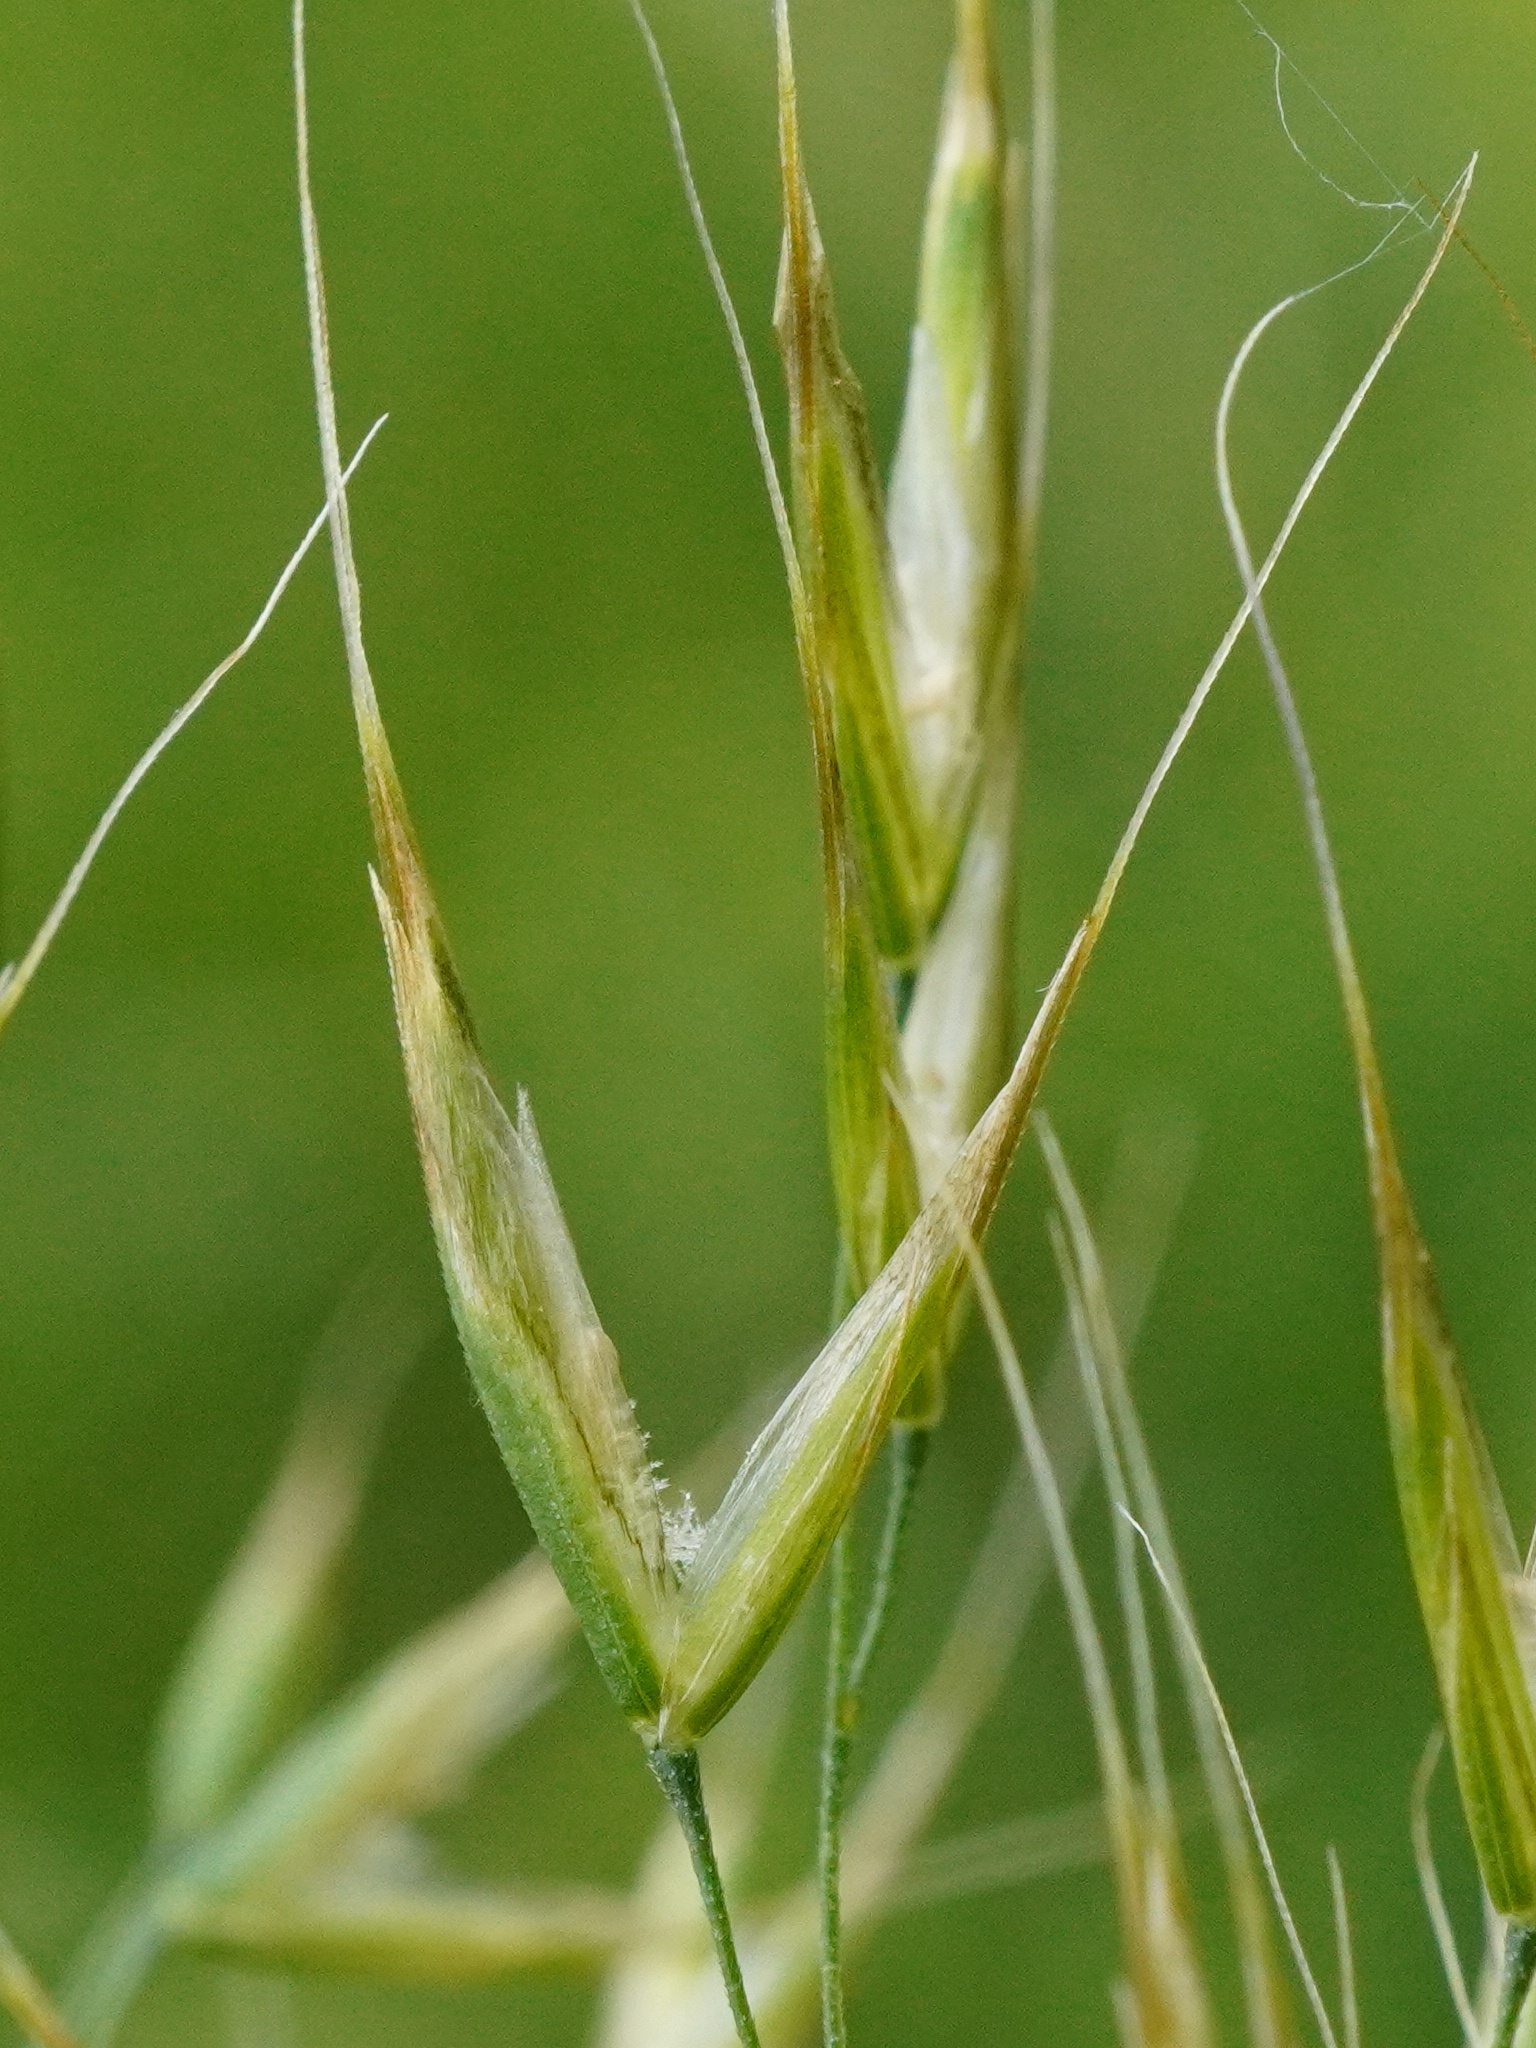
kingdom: Plantae
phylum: Tracheophyta
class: Liliopsida
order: Poales
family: Poaceae
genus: Trisetum
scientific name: Trisetum flavescens
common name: Yellow oat-grass
